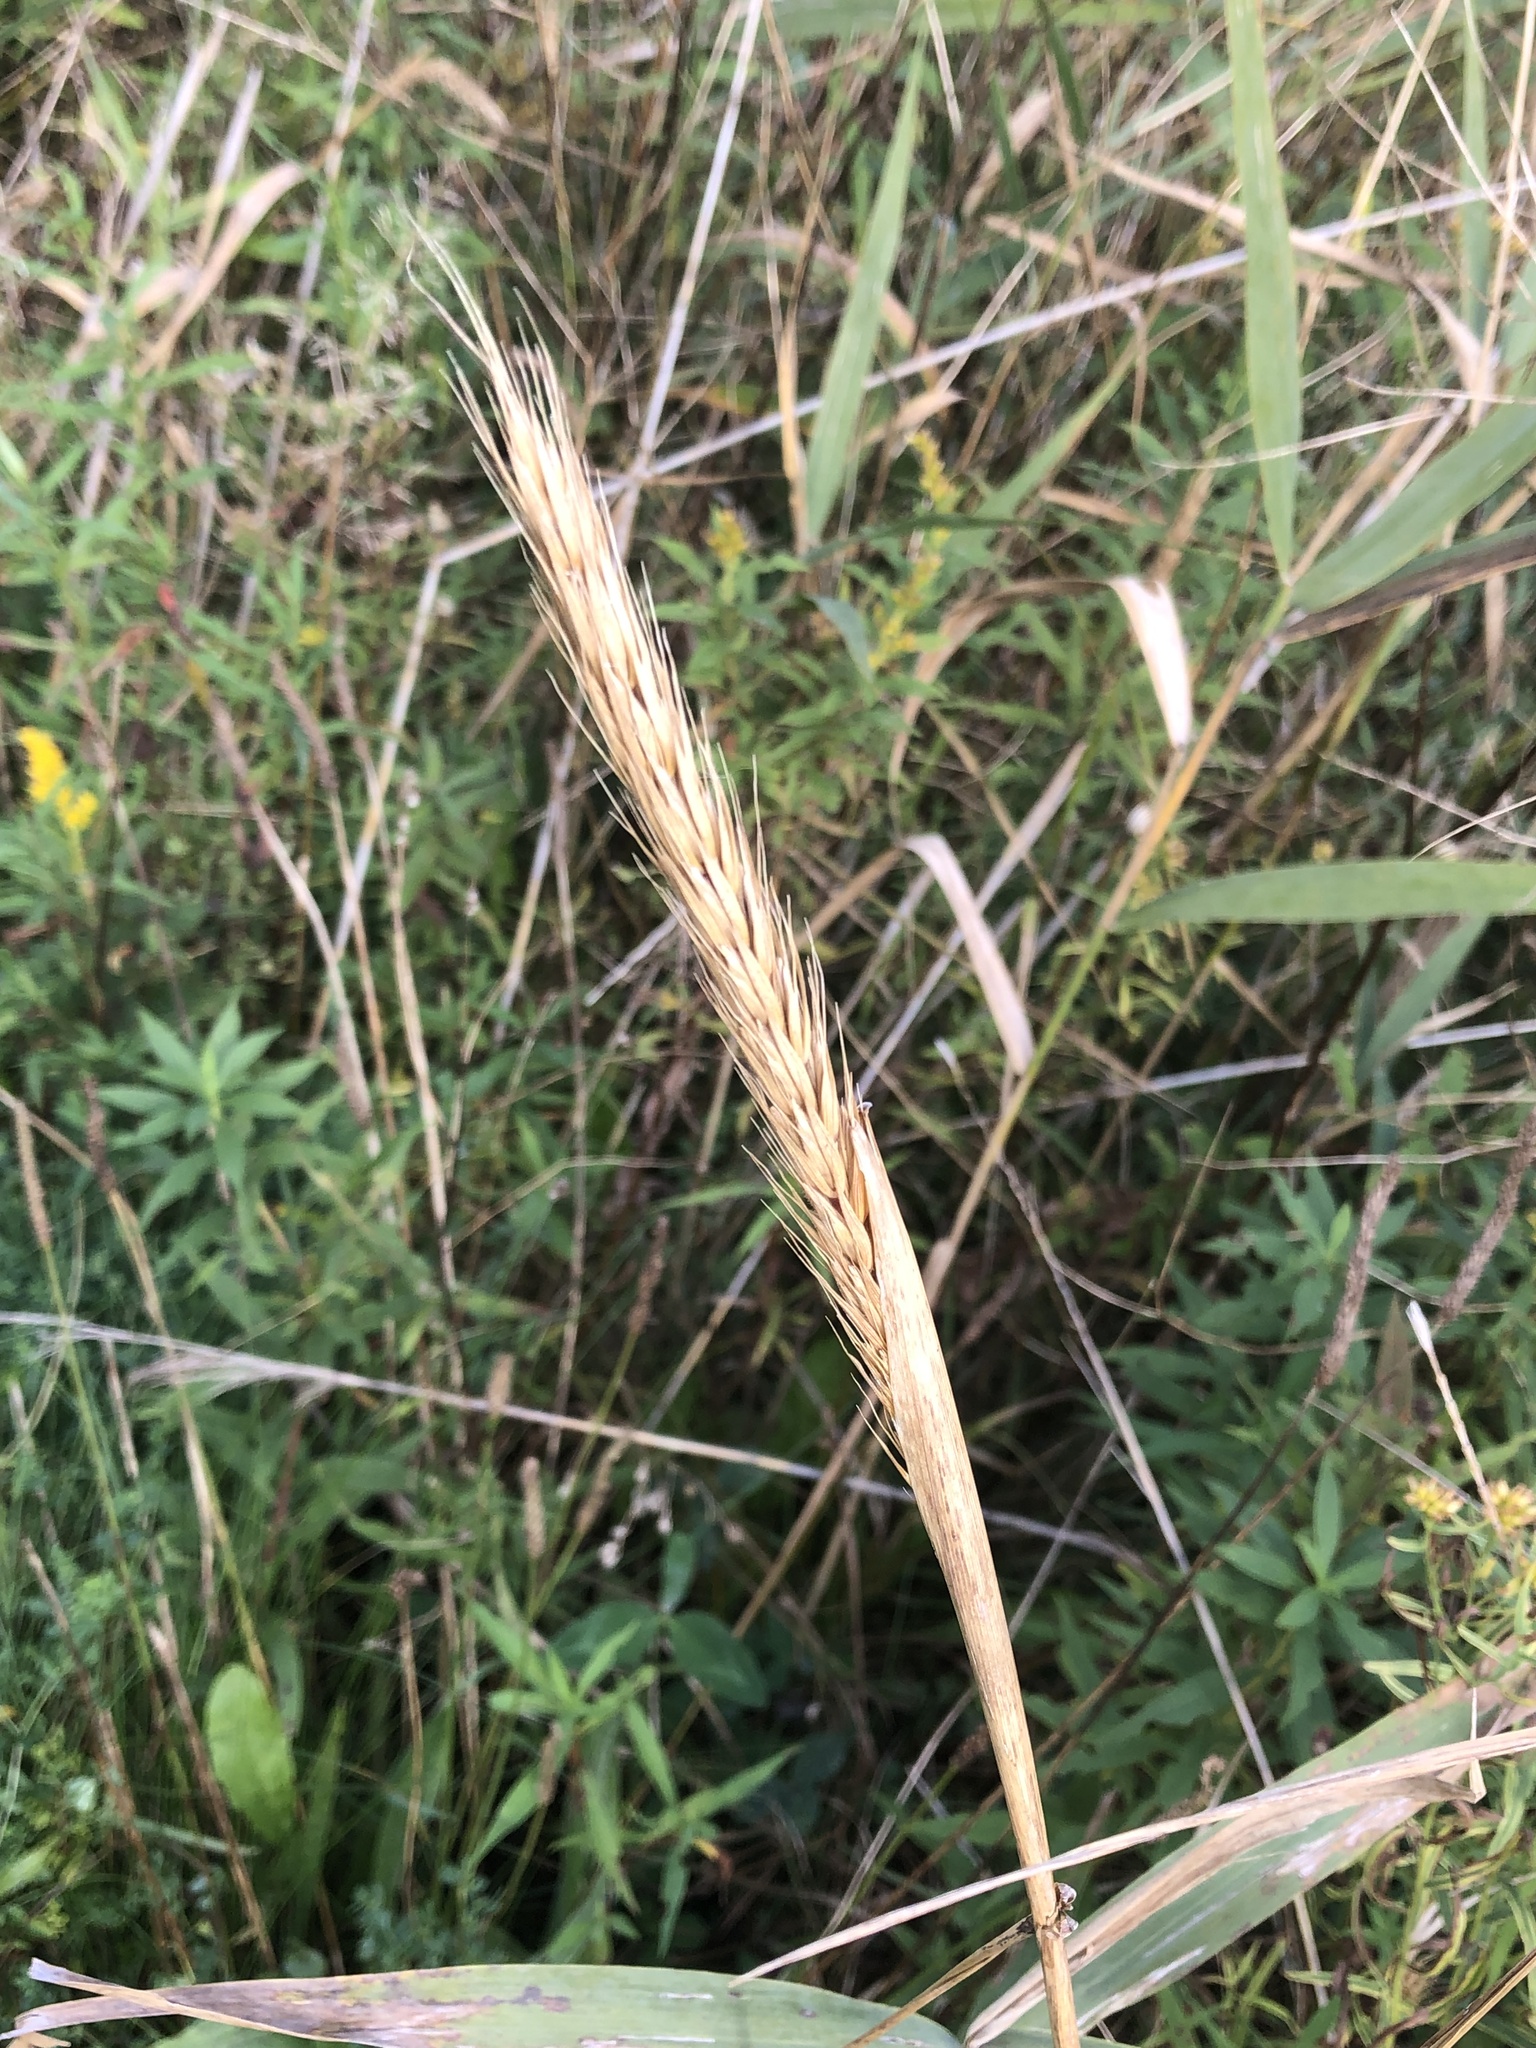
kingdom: Plantae
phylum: Tracheophyta
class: Liliopsida
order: Poales
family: Poaceae
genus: Elymus
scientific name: Elymus virginicus
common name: Common eastern wildrye
